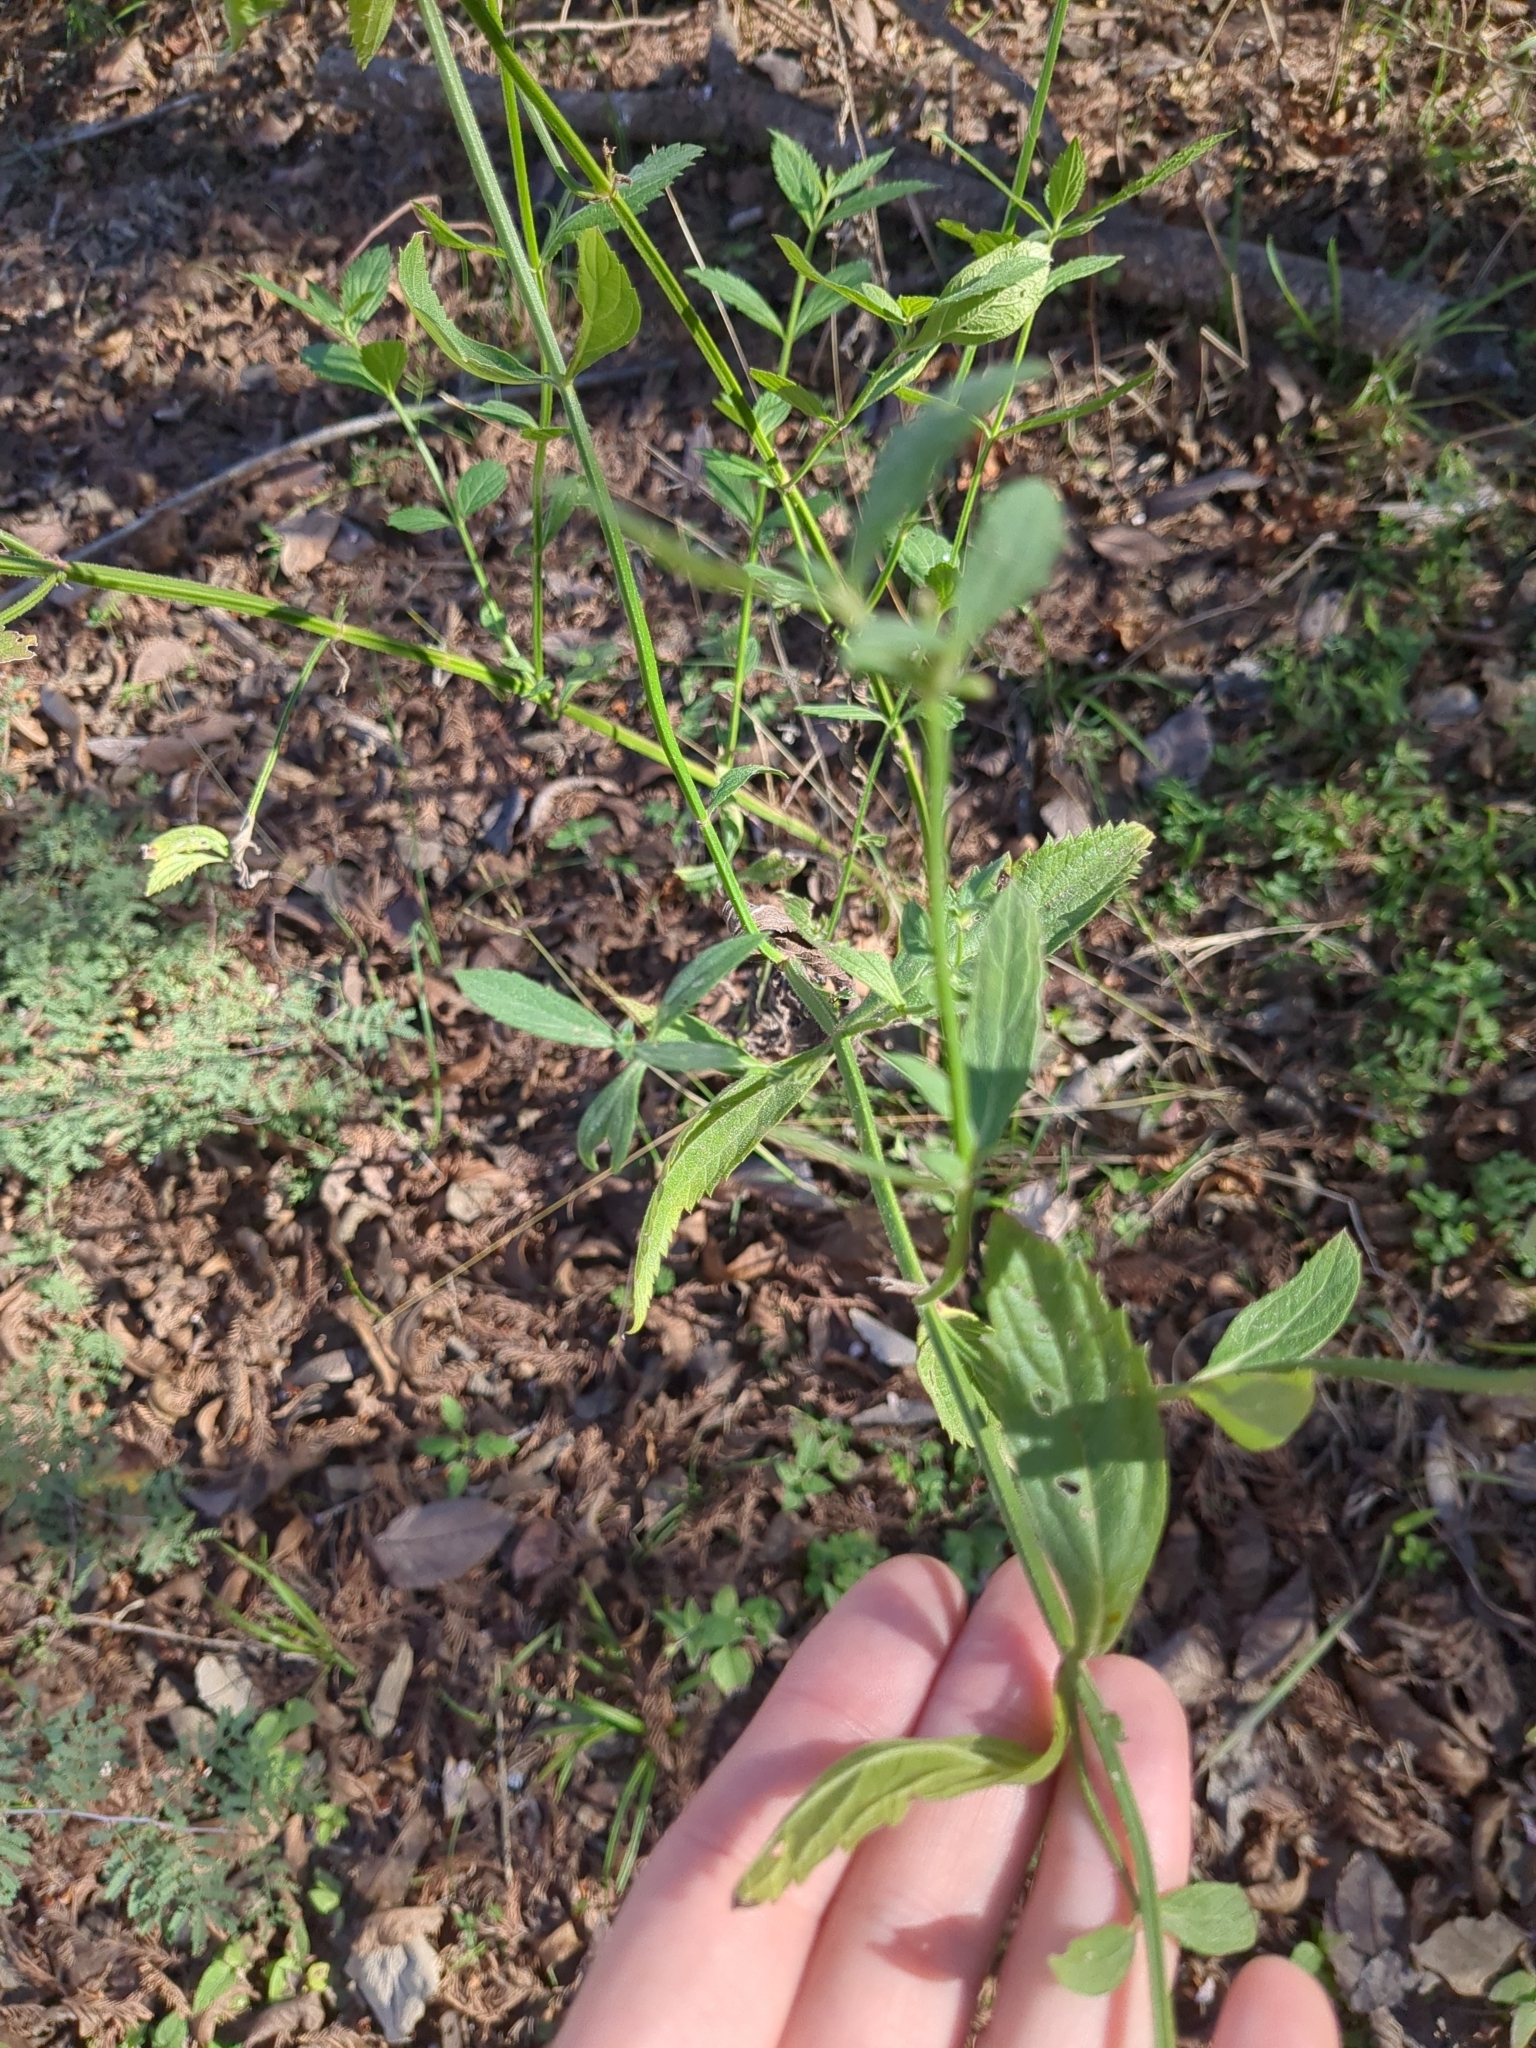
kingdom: Plantae
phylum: Tracheophyta
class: Magnoliopsida
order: Lamiales
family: Verbenaceae
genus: Verbena
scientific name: Verbena brasiliensis
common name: Brazilian vervain
